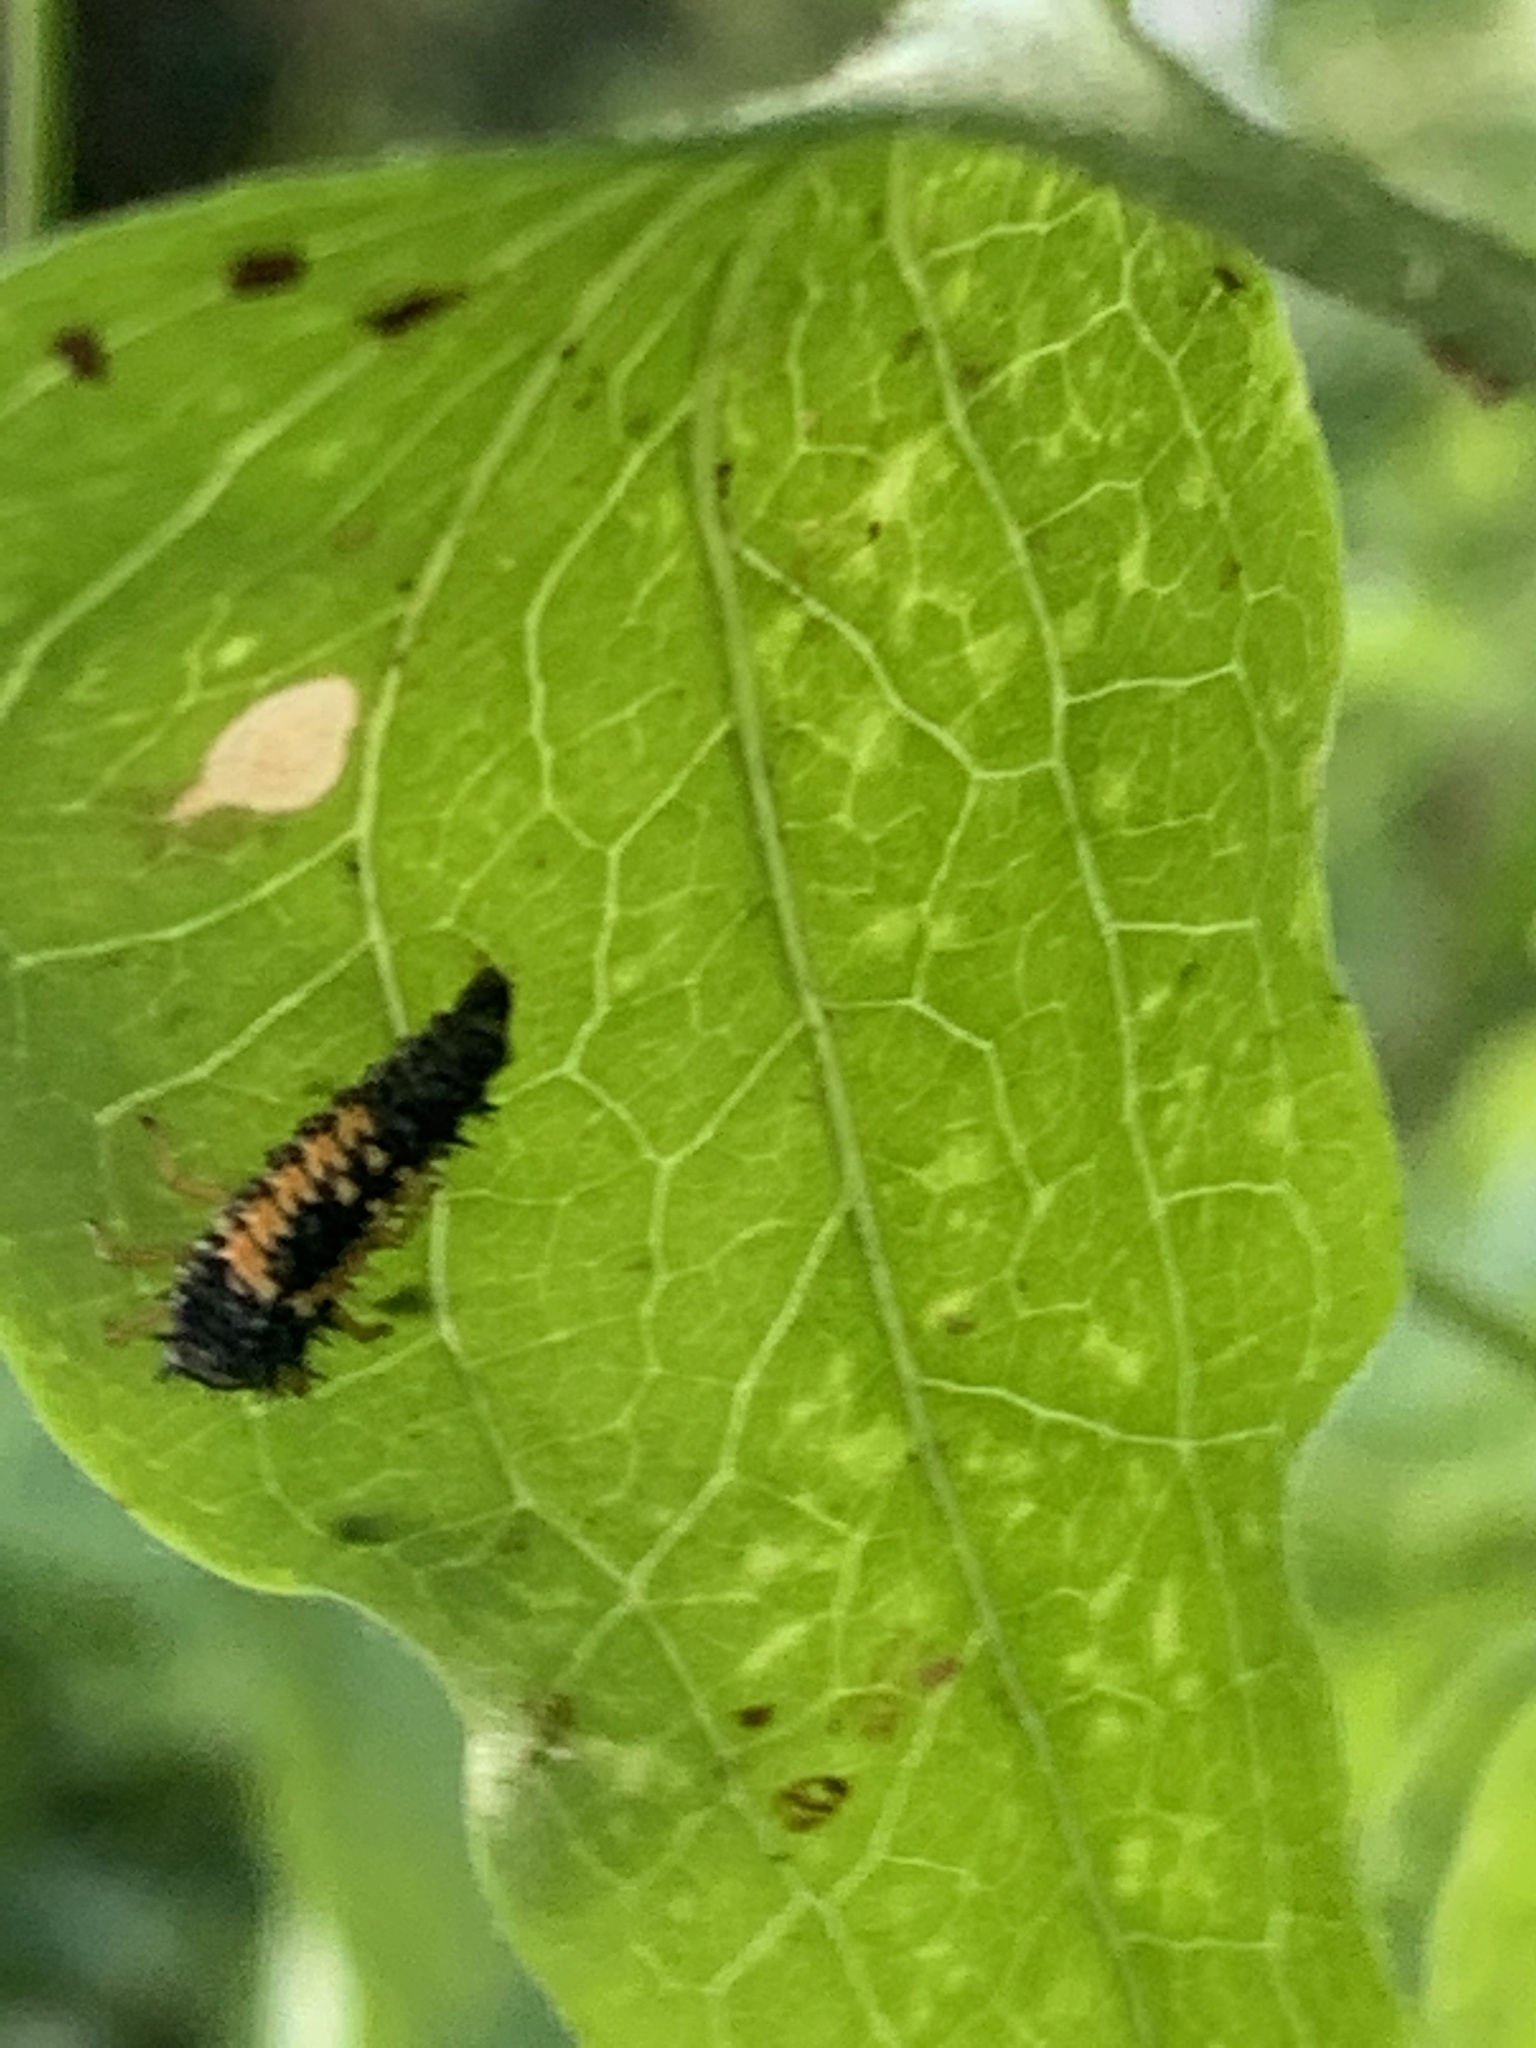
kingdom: Animalia
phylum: Arthropoda
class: Insecta
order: Coleoptera
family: Coccinellidae
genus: Harmonia
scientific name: Harmonia axyridis
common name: Harlequin ladybird
